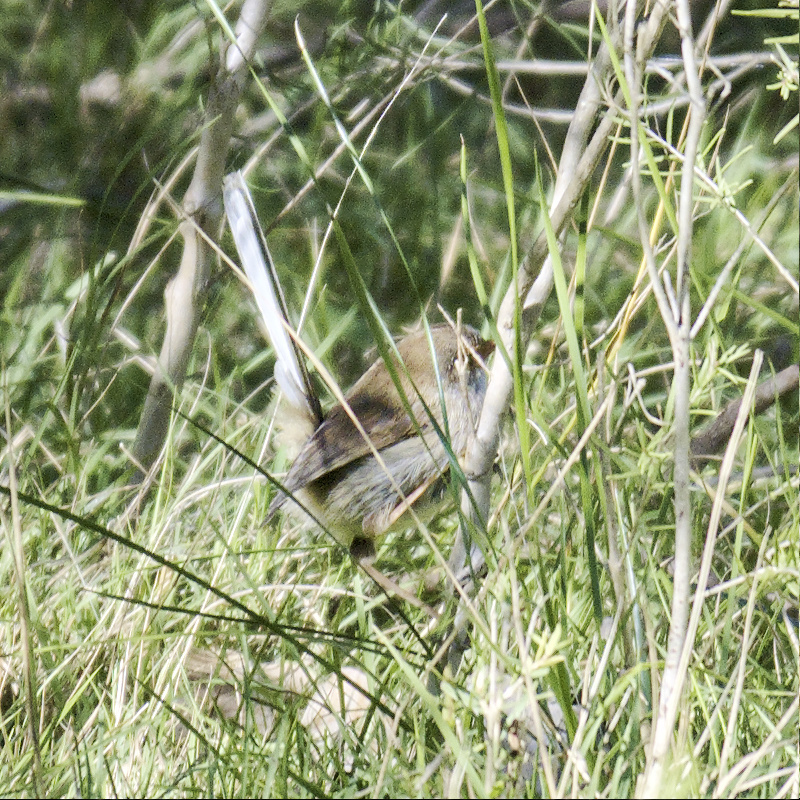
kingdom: Animalia
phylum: Chordata
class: Aves
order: Passeriformes
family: Maluridae
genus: Malurus
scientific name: Malurus cyaneus
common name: Superb fairywren
